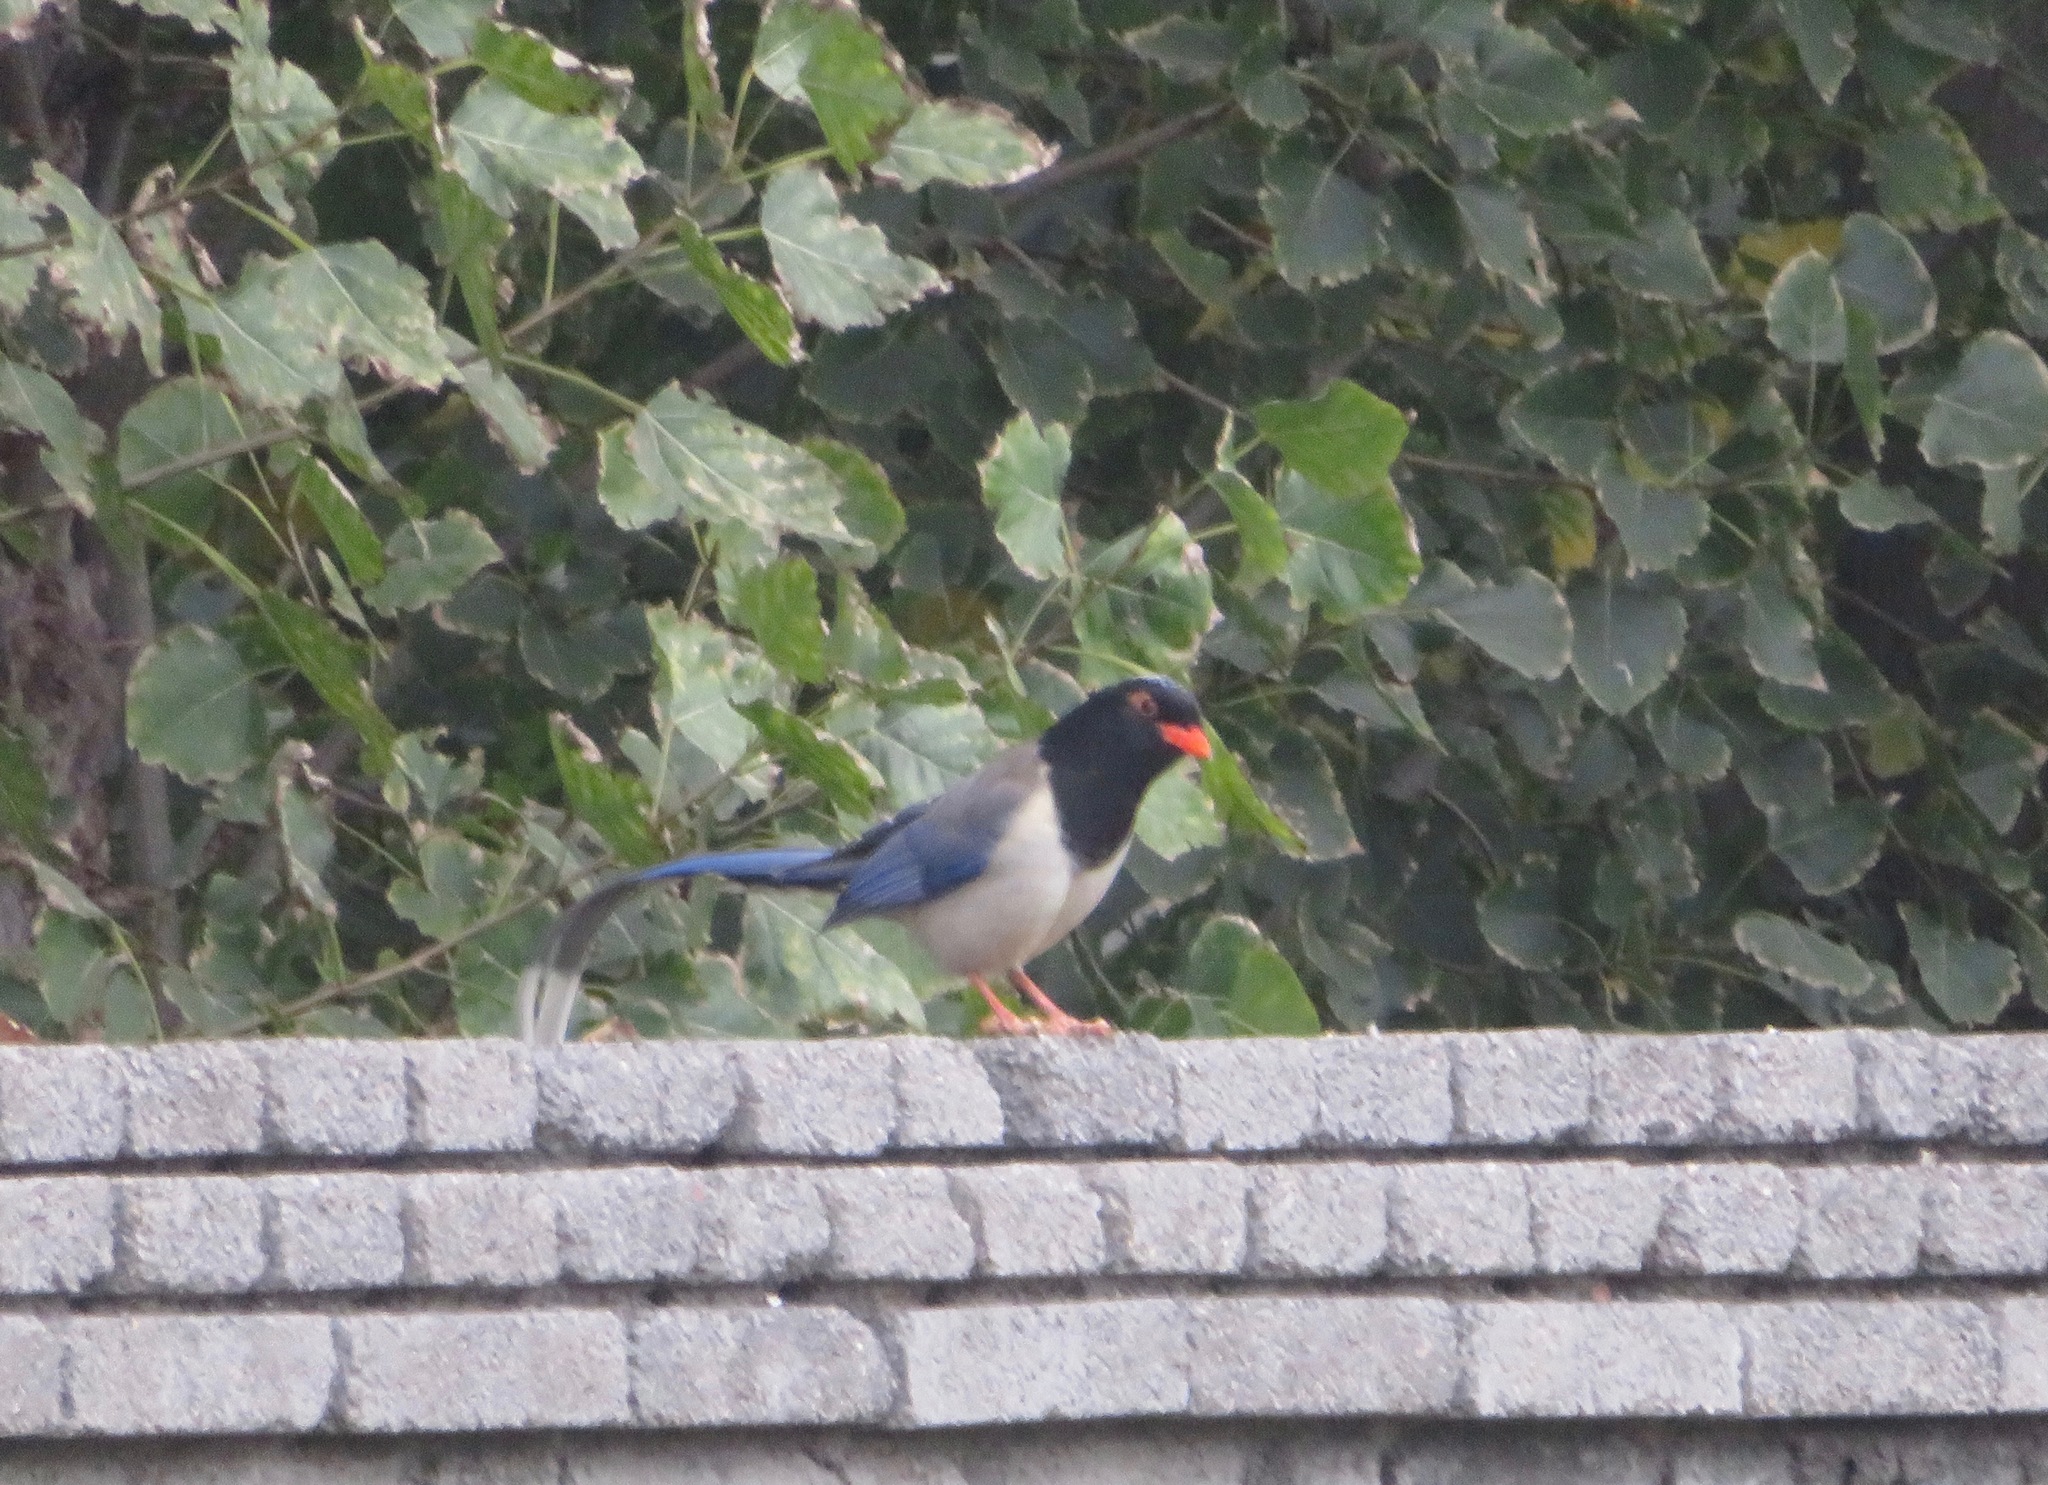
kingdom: Animalia
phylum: Chordata
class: Aves
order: Passeriformes
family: Corvidae
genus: Urocissa
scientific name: Urocissa erythroryncha
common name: Red-billed blue magpie
